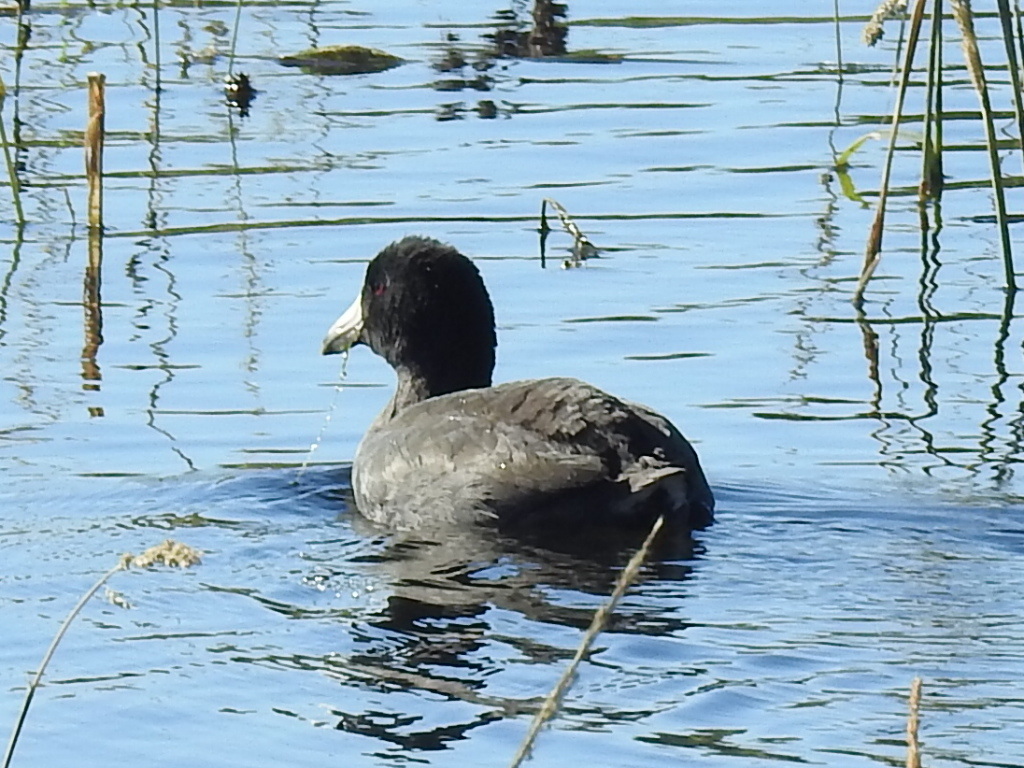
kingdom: Animalia
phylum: Chordata
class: Aves
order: Gruiformes
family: Rallidae
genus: Fulica
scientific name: Fulica americana
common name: American coot
